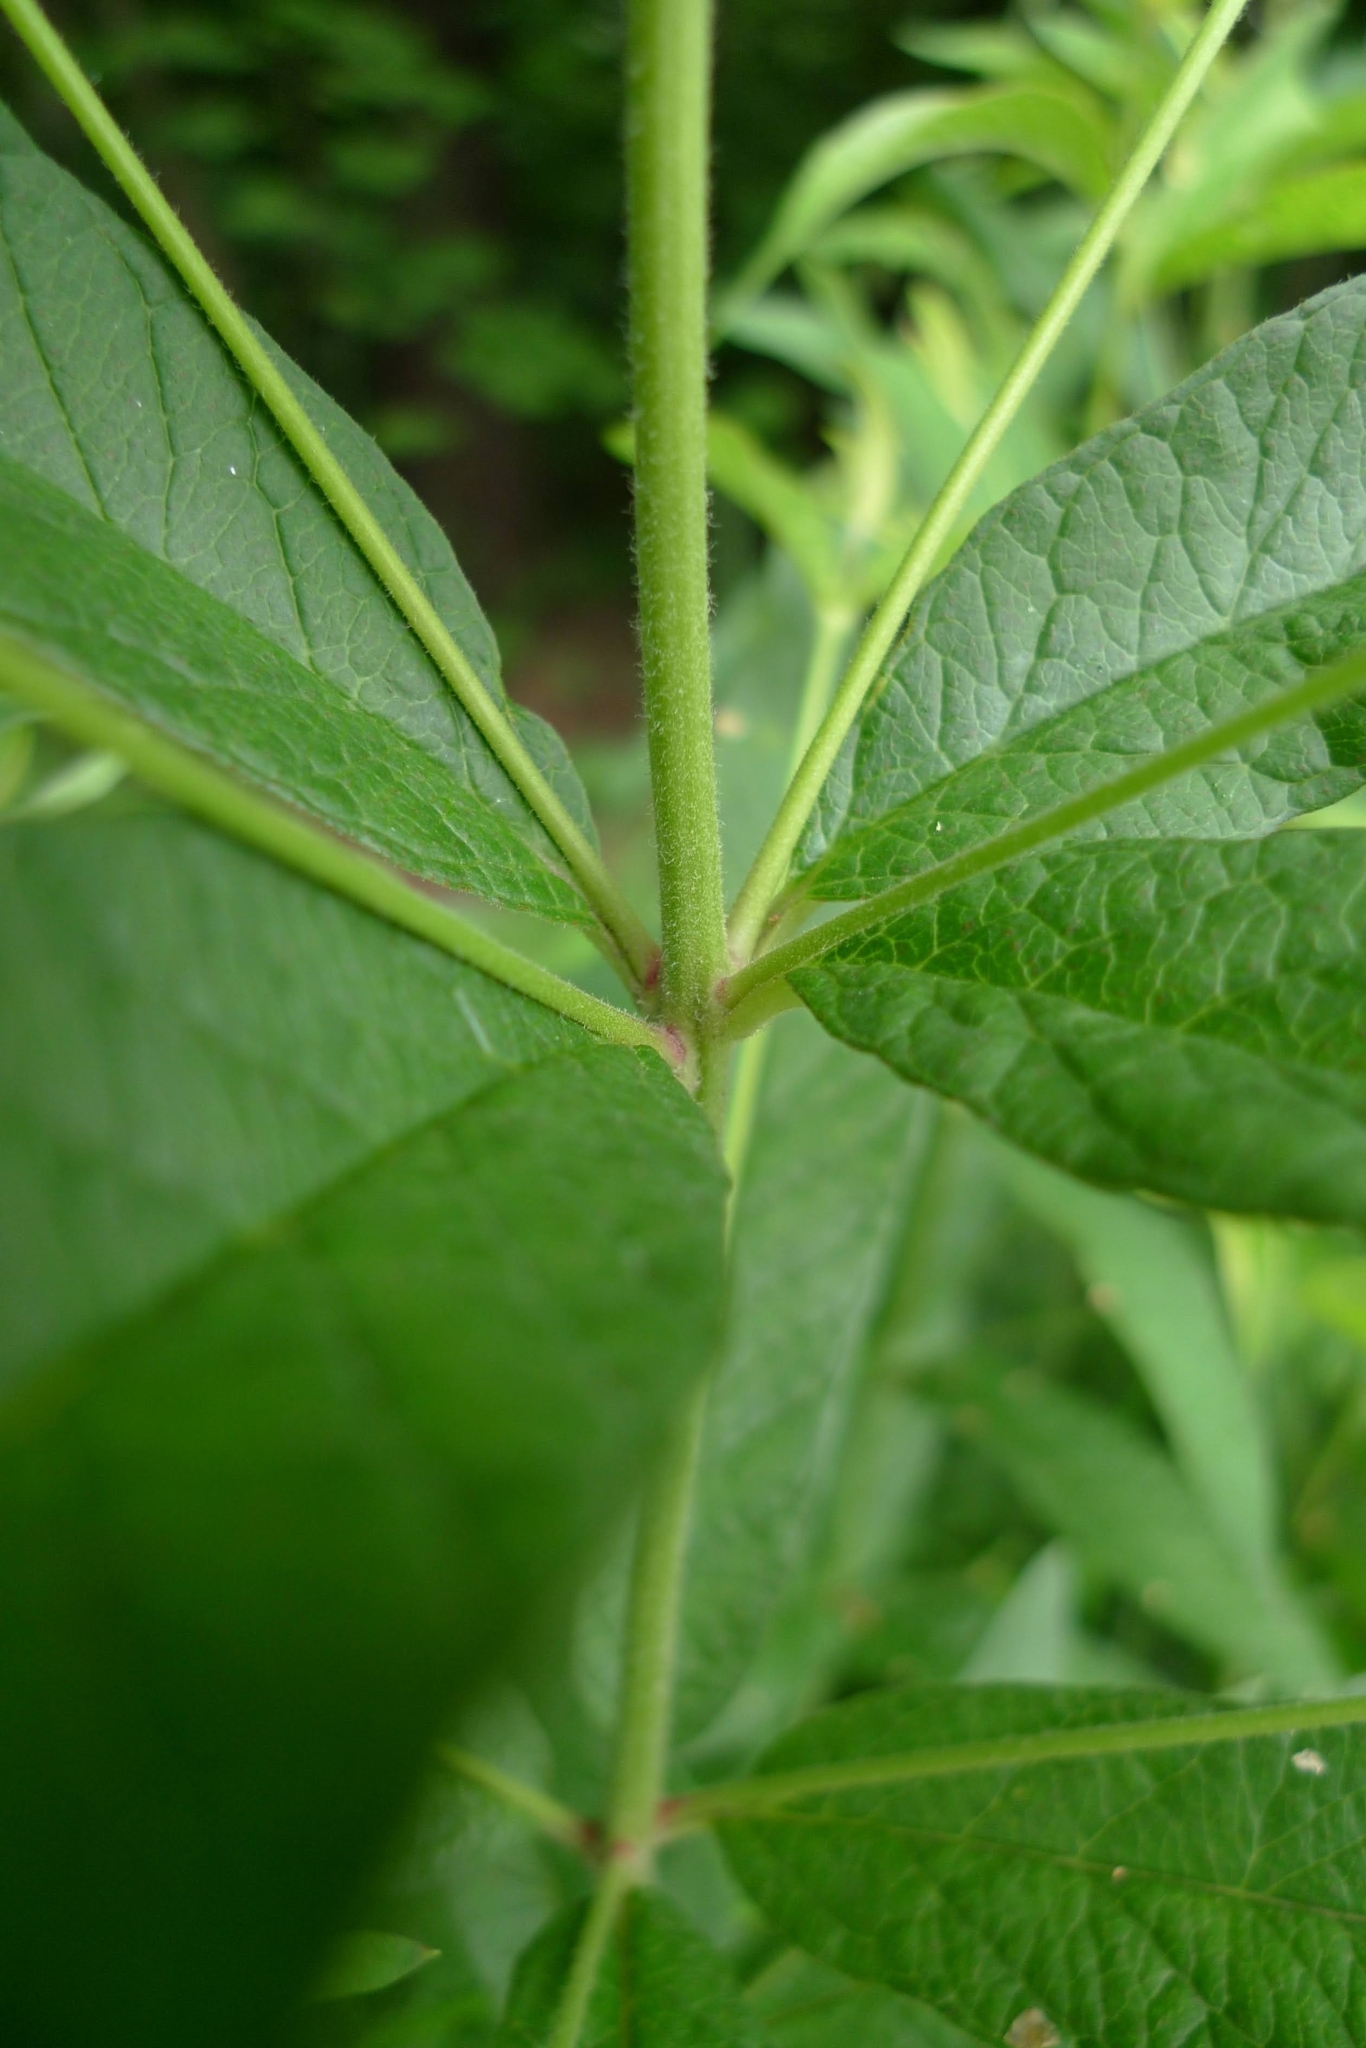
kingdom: Plantae
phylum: Tracheophyta
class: Magnoliopsida
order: Ericales
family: Primulaceae
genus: Lysimachia
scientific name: Lysimachia vulgaris
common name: Yellow loosestrife
